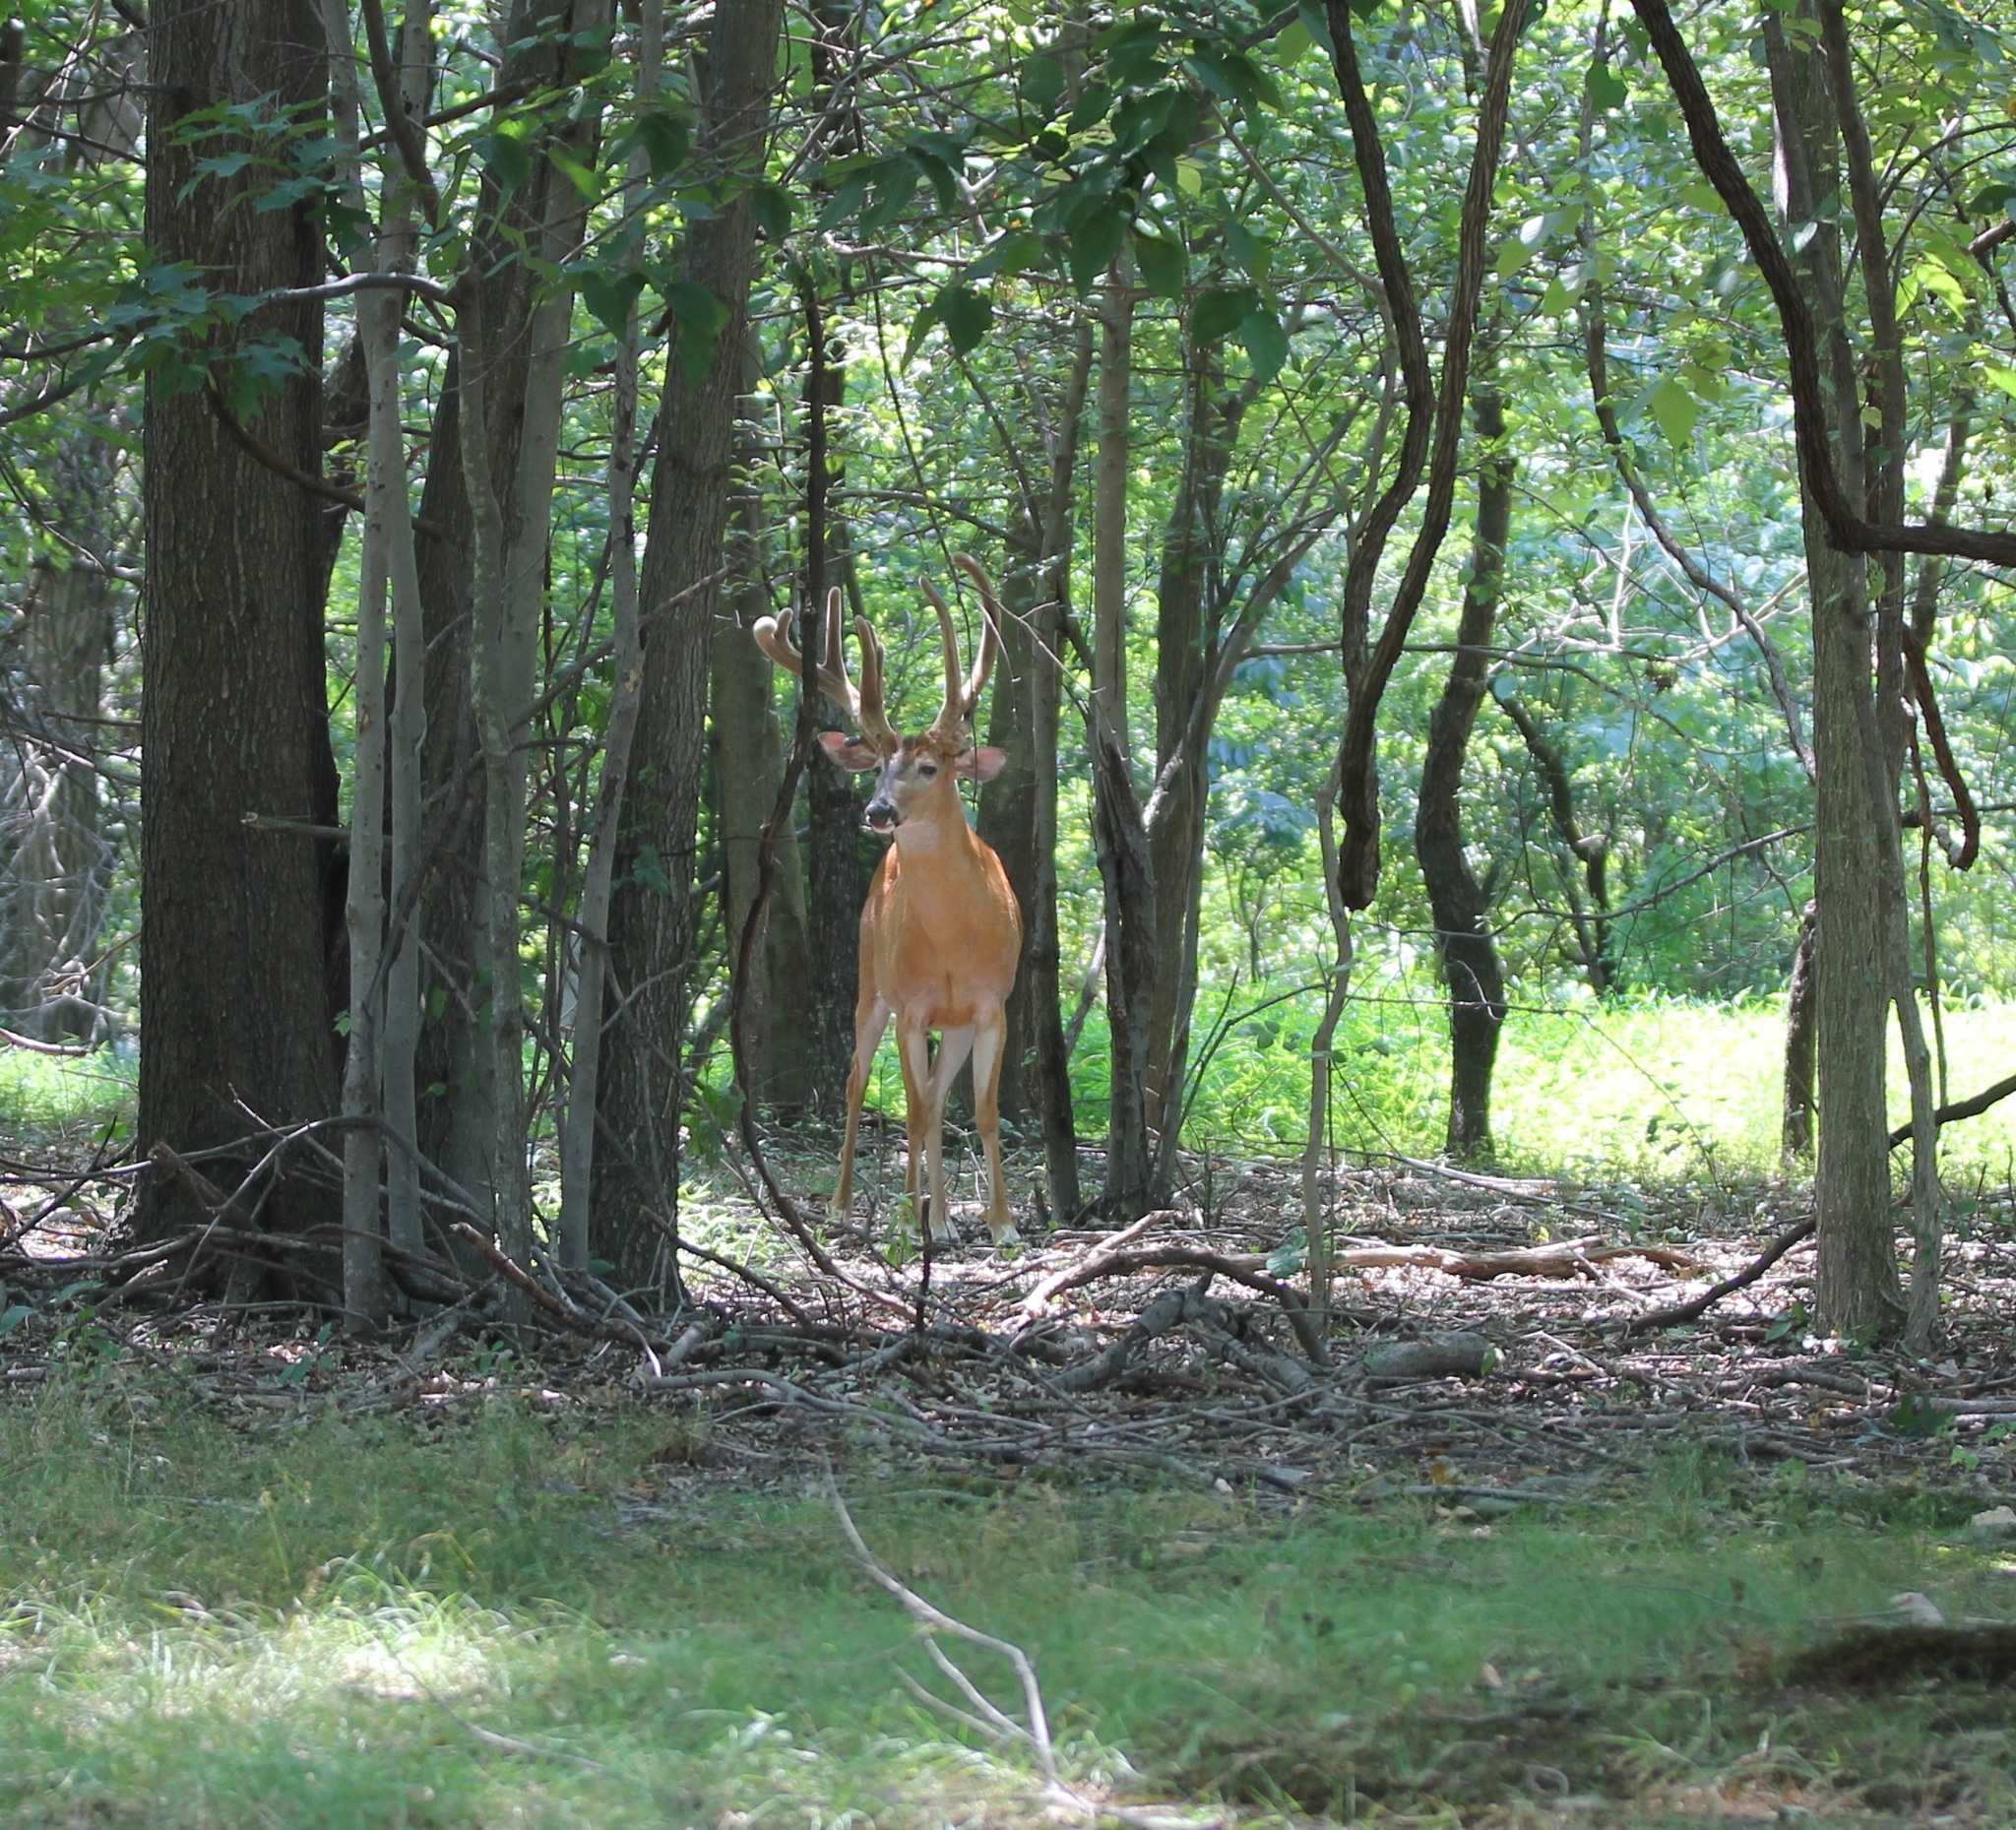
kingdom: Animalia
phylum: Chordata
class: Mammalia
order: Artiodactyla
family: Cervidae
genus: Odocoileus
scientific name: Odocoileus virginianus
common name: White-tailed deer
